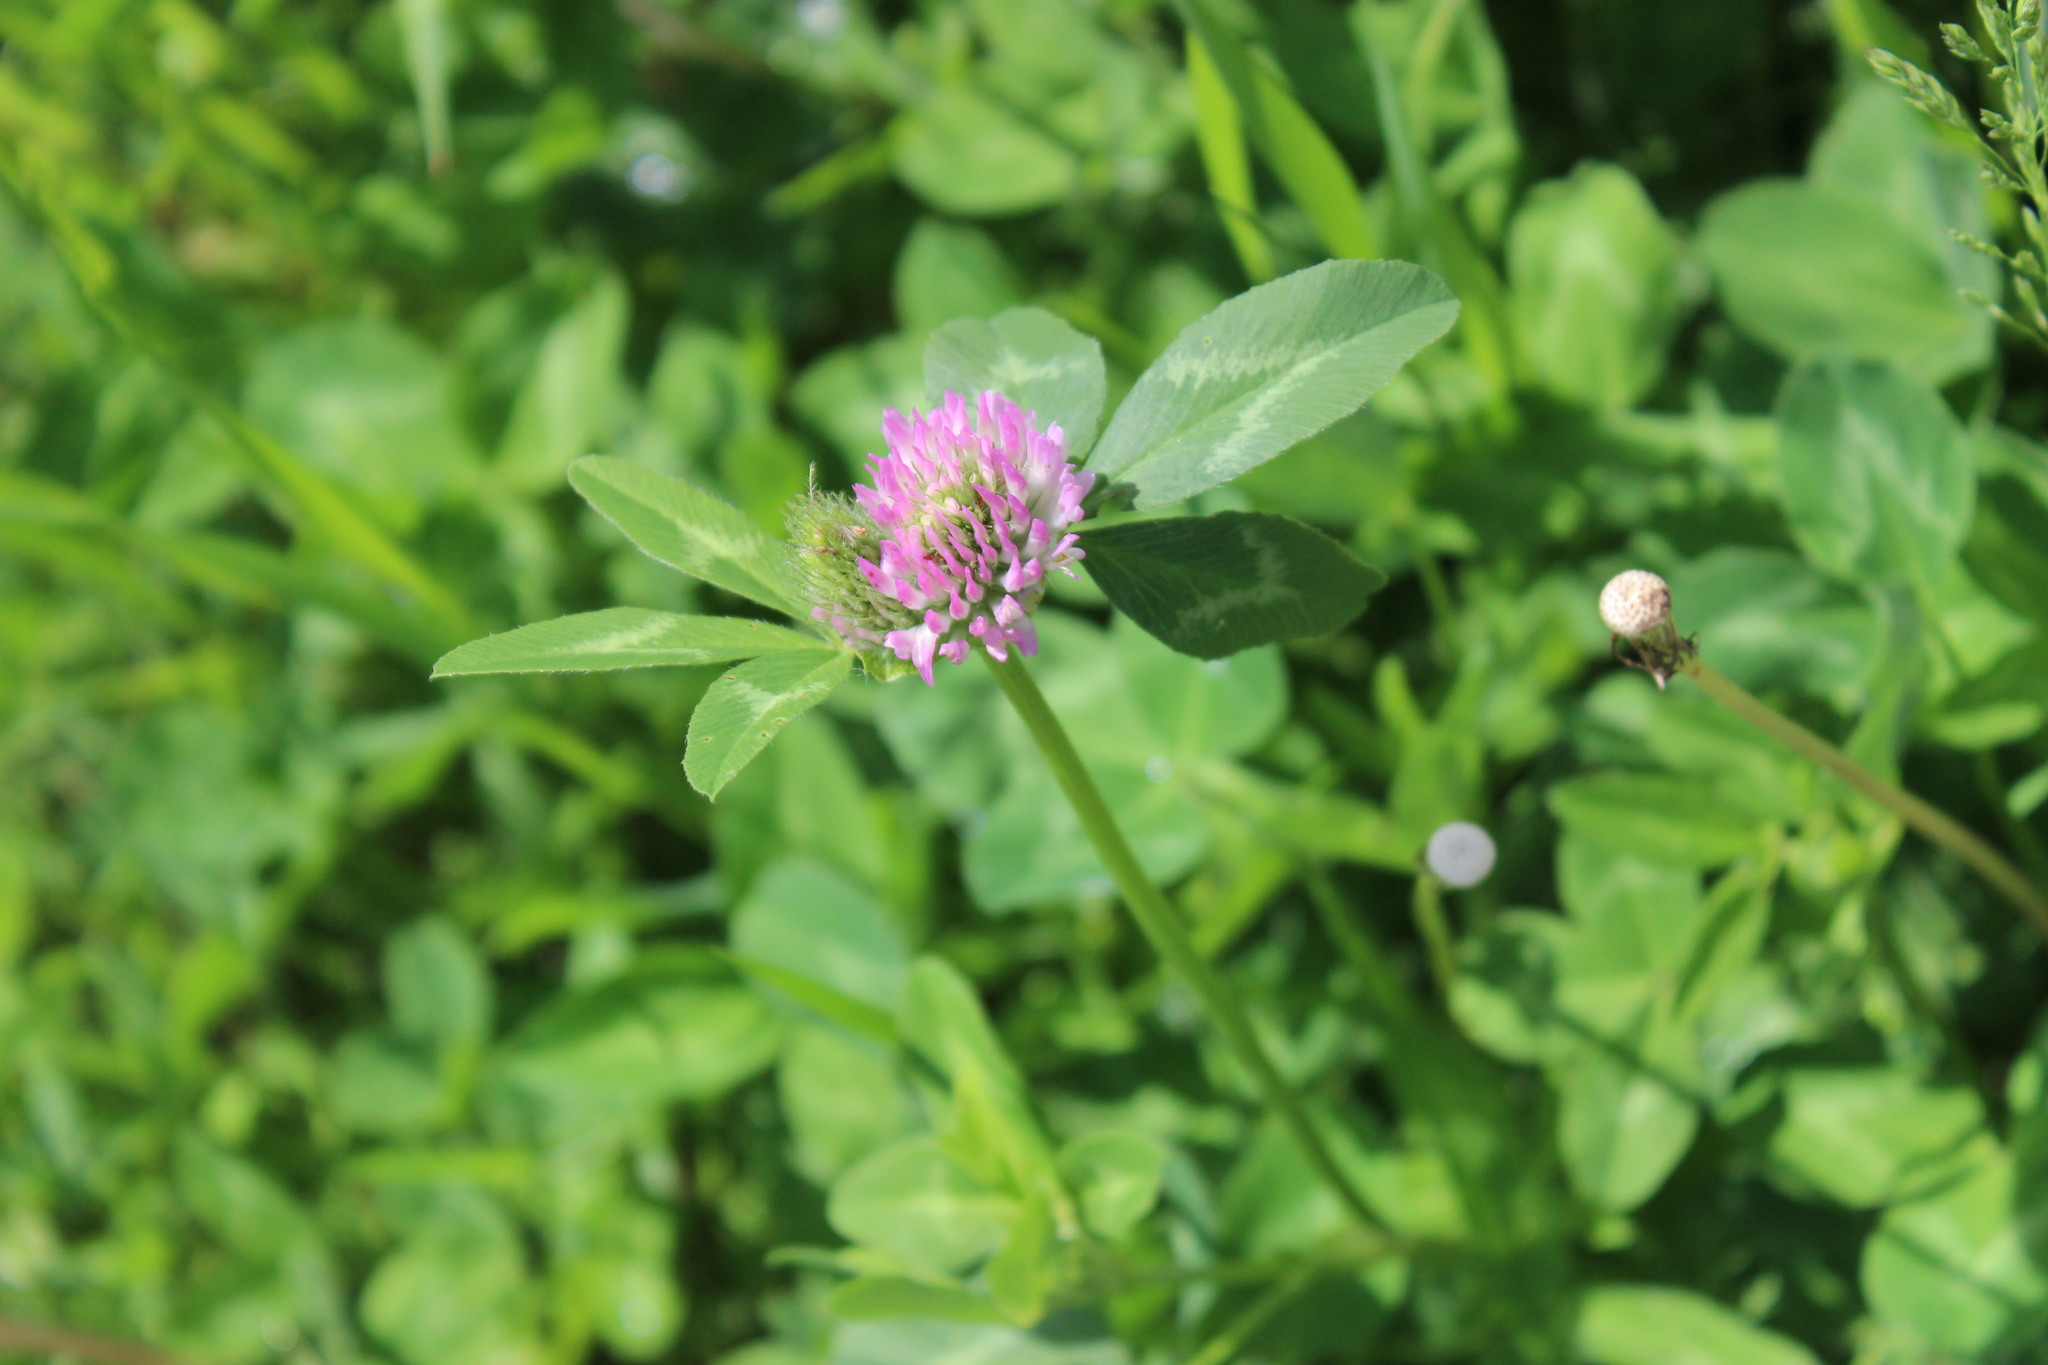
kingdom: Plantae
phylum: Tracheophyta
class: Magnoliopsida
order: Fabales
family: Fabaceae
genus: Trifolium
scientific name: Trifolium pratense
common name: Red clover
